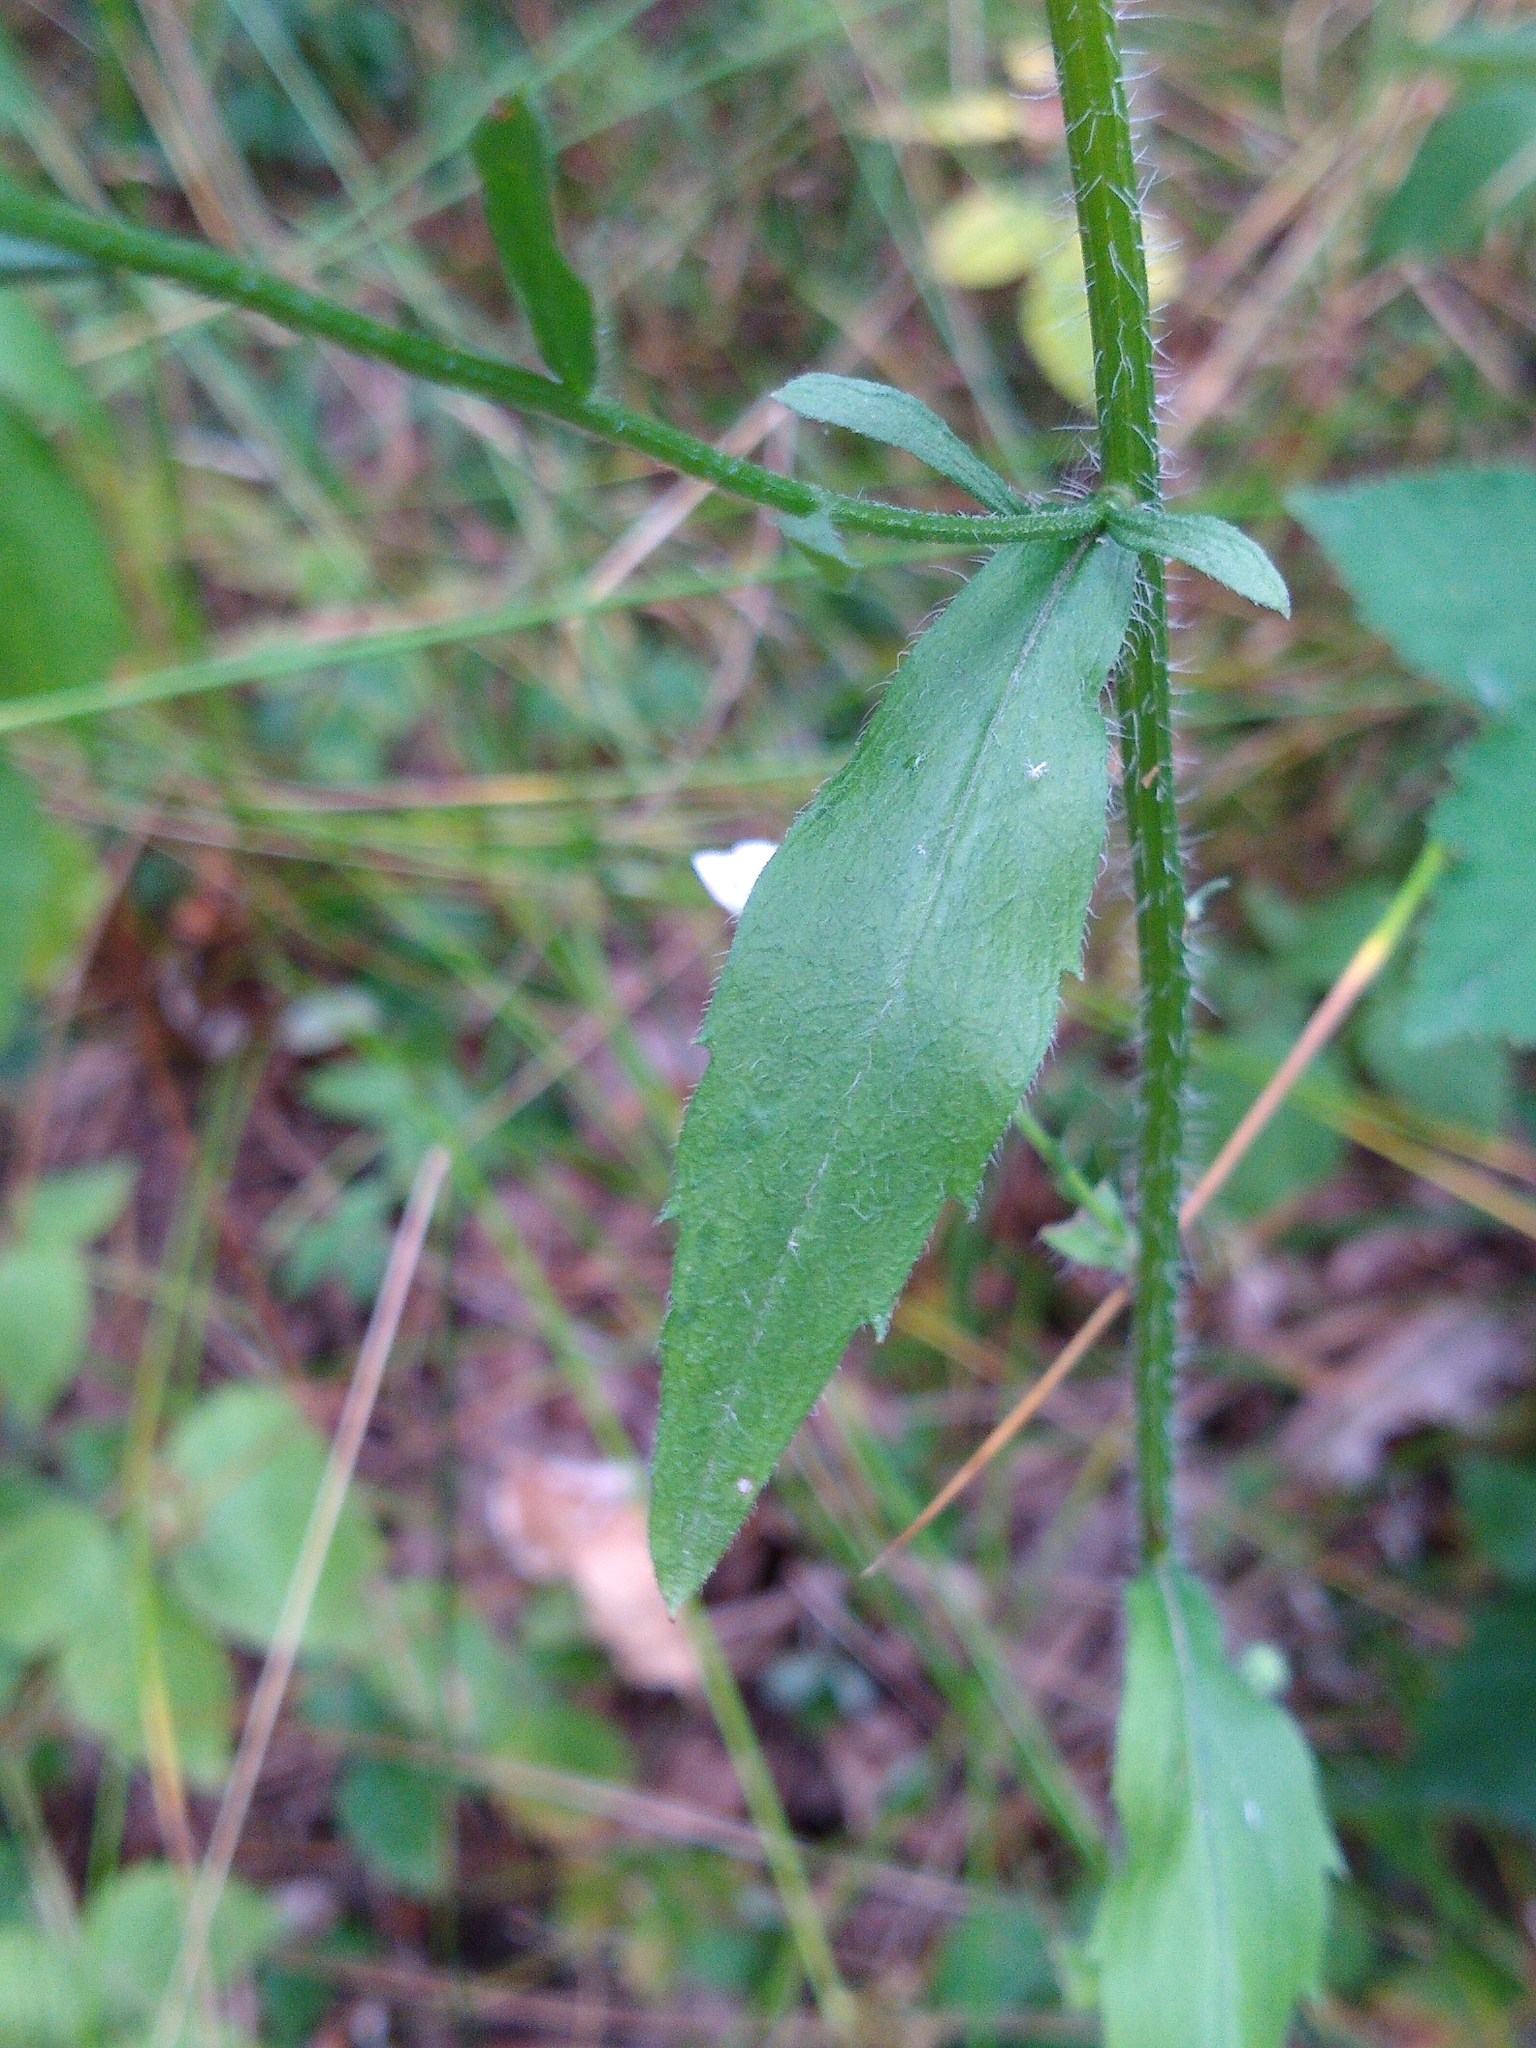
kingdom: Plantae
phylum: Tracheophyta
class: Magnoliopsida
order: Asterales
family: Asteraceae
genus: Erigeron
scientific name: Erigeron annuus
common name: Tall fleabane
